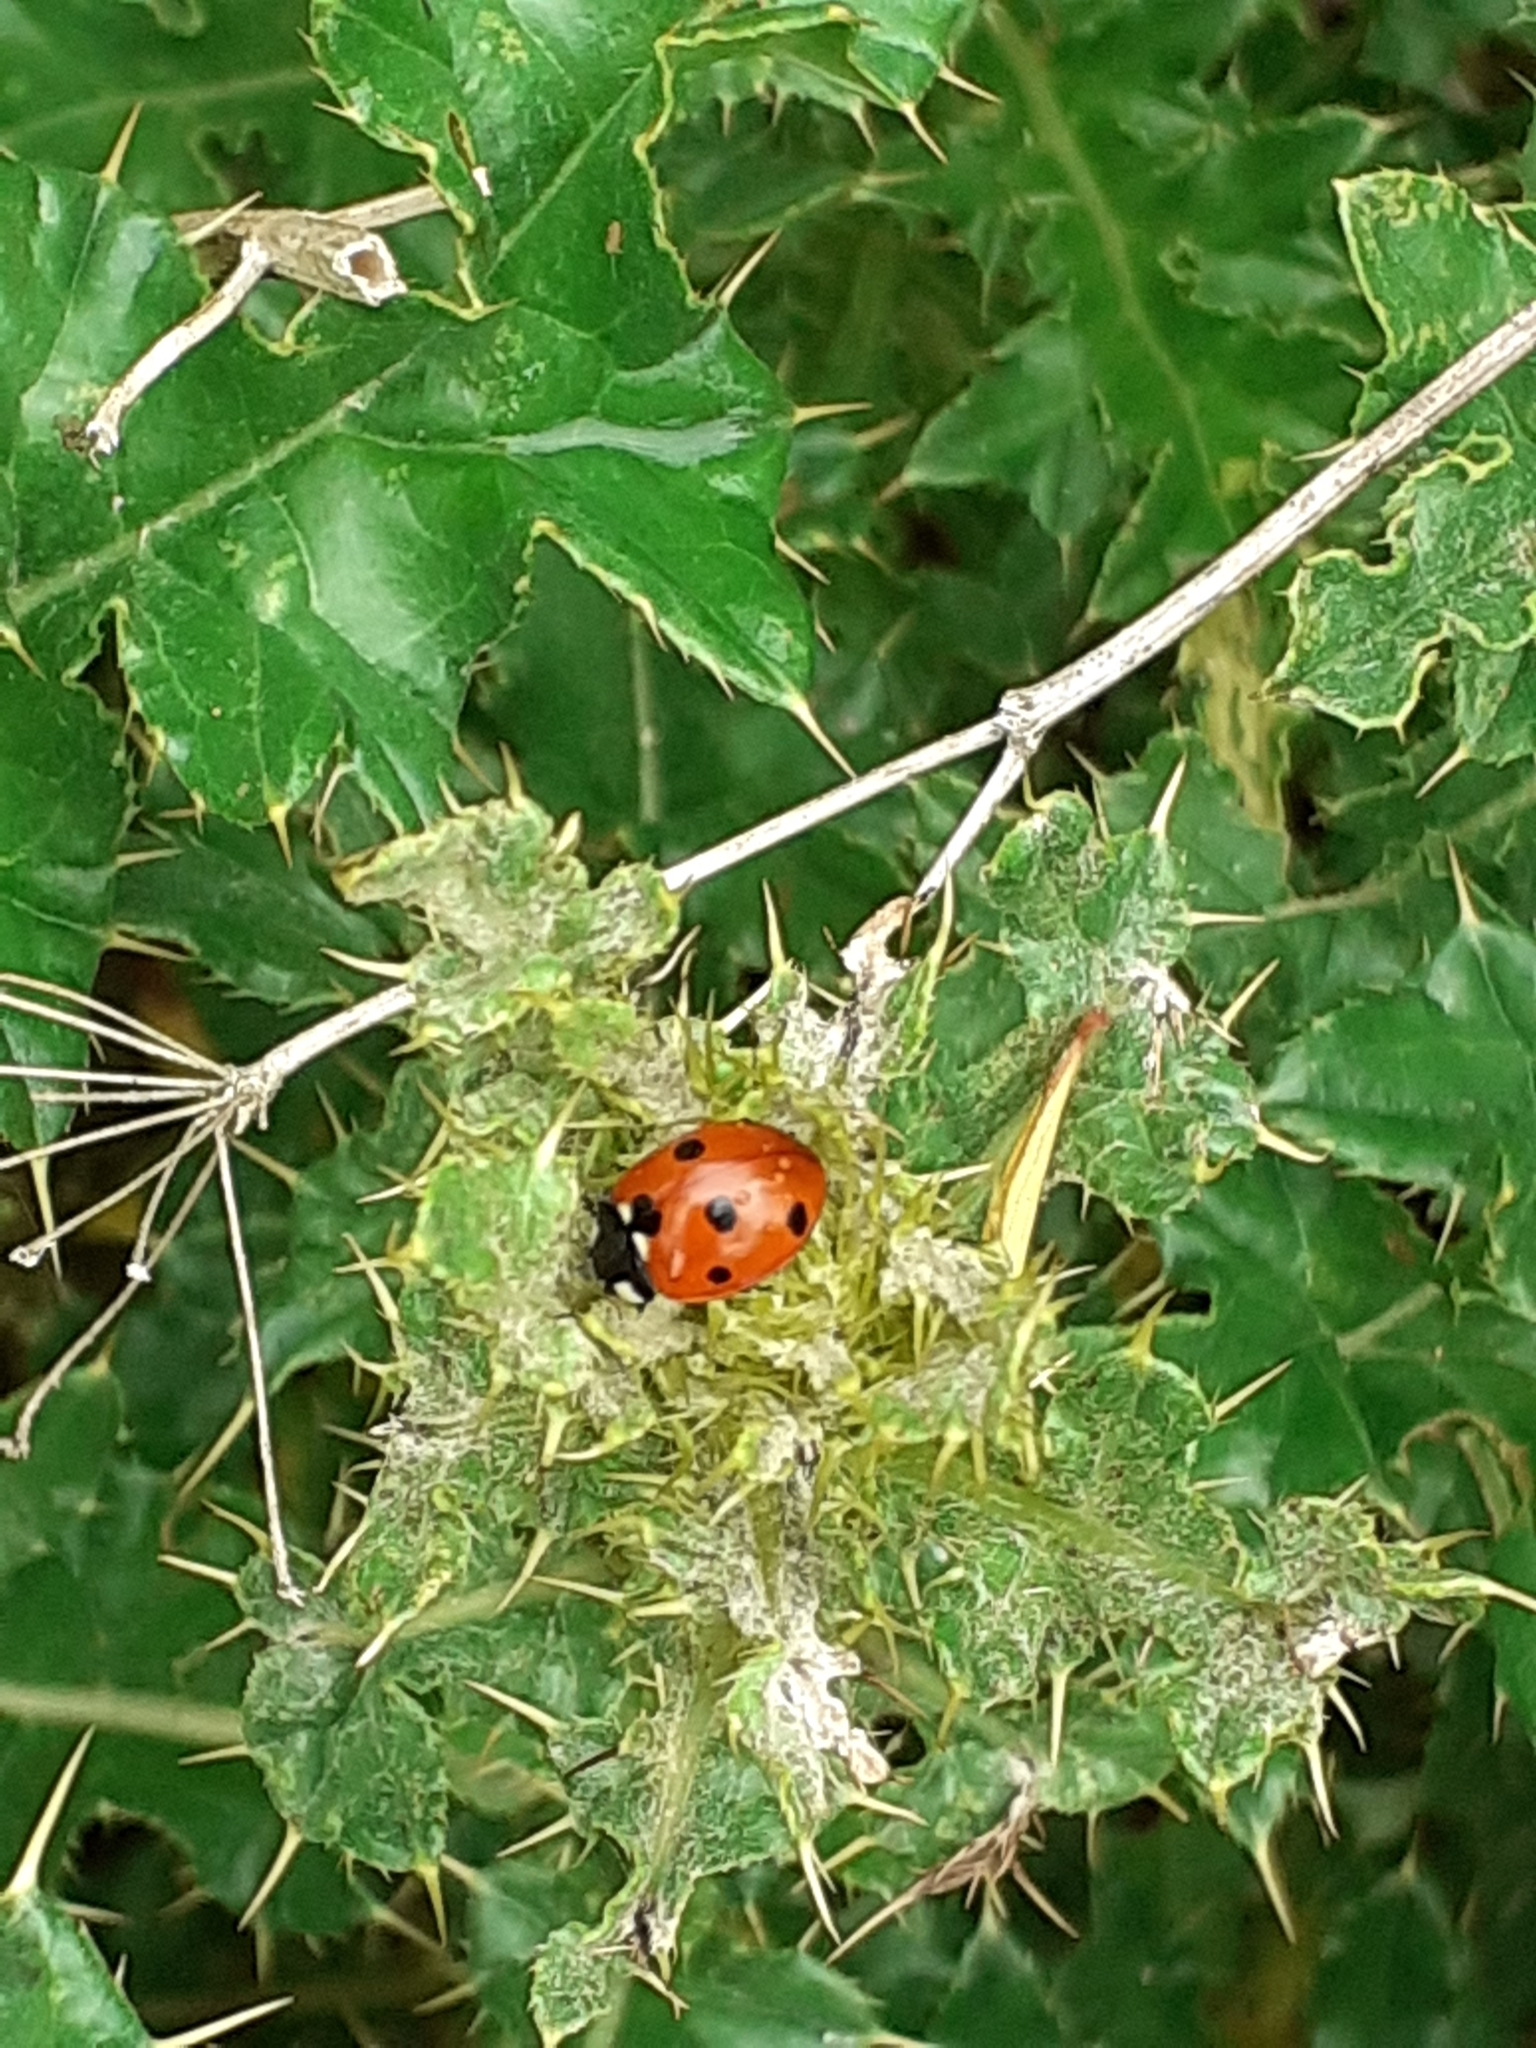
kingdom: Animalia
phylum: Arthropoda
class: Insecta
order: Coleoptera
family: Coccinellidae
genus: Coccinella
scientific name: Coccinella septempunctata
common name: Sevenspotted lady beetle
